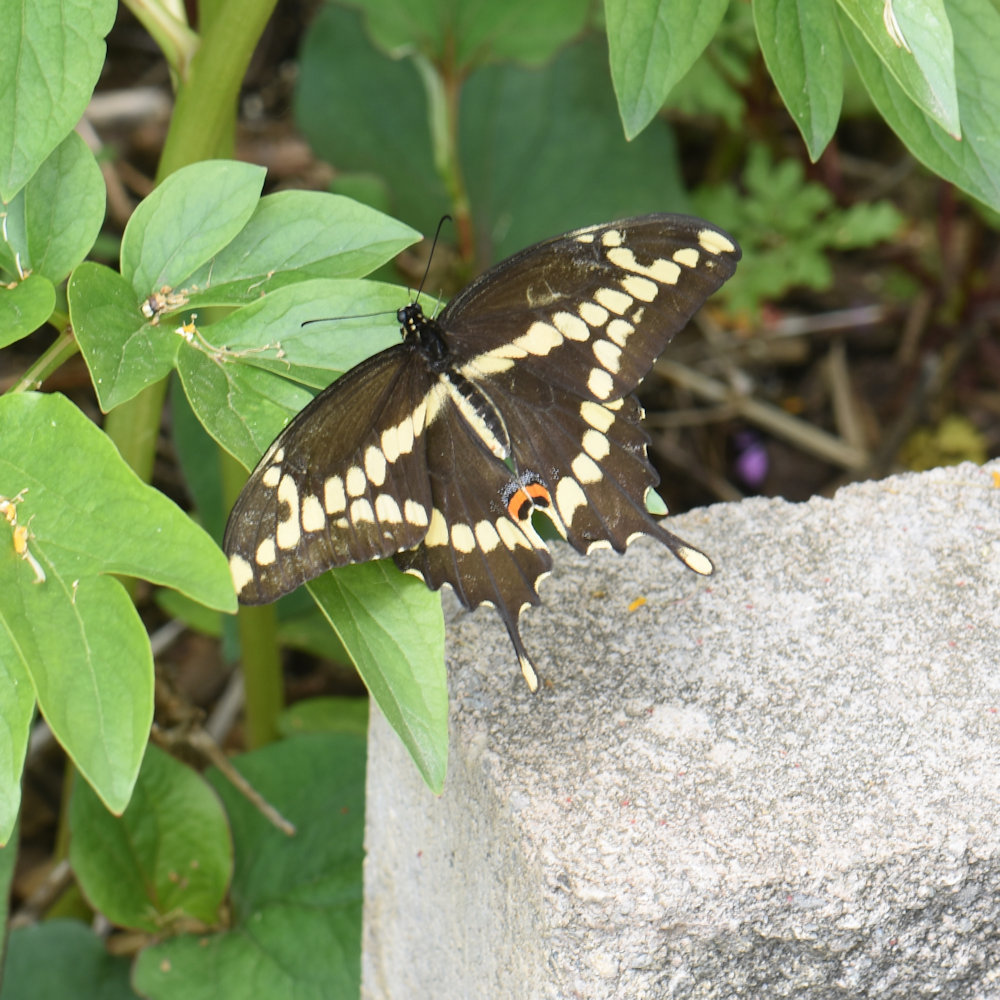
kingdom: Animalia
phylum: Arthropoda
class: Insecta
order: Lepidoptera
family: Papilionidae
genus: Papilio
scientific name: Papilio cresphontes
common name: Giant swallowtail
